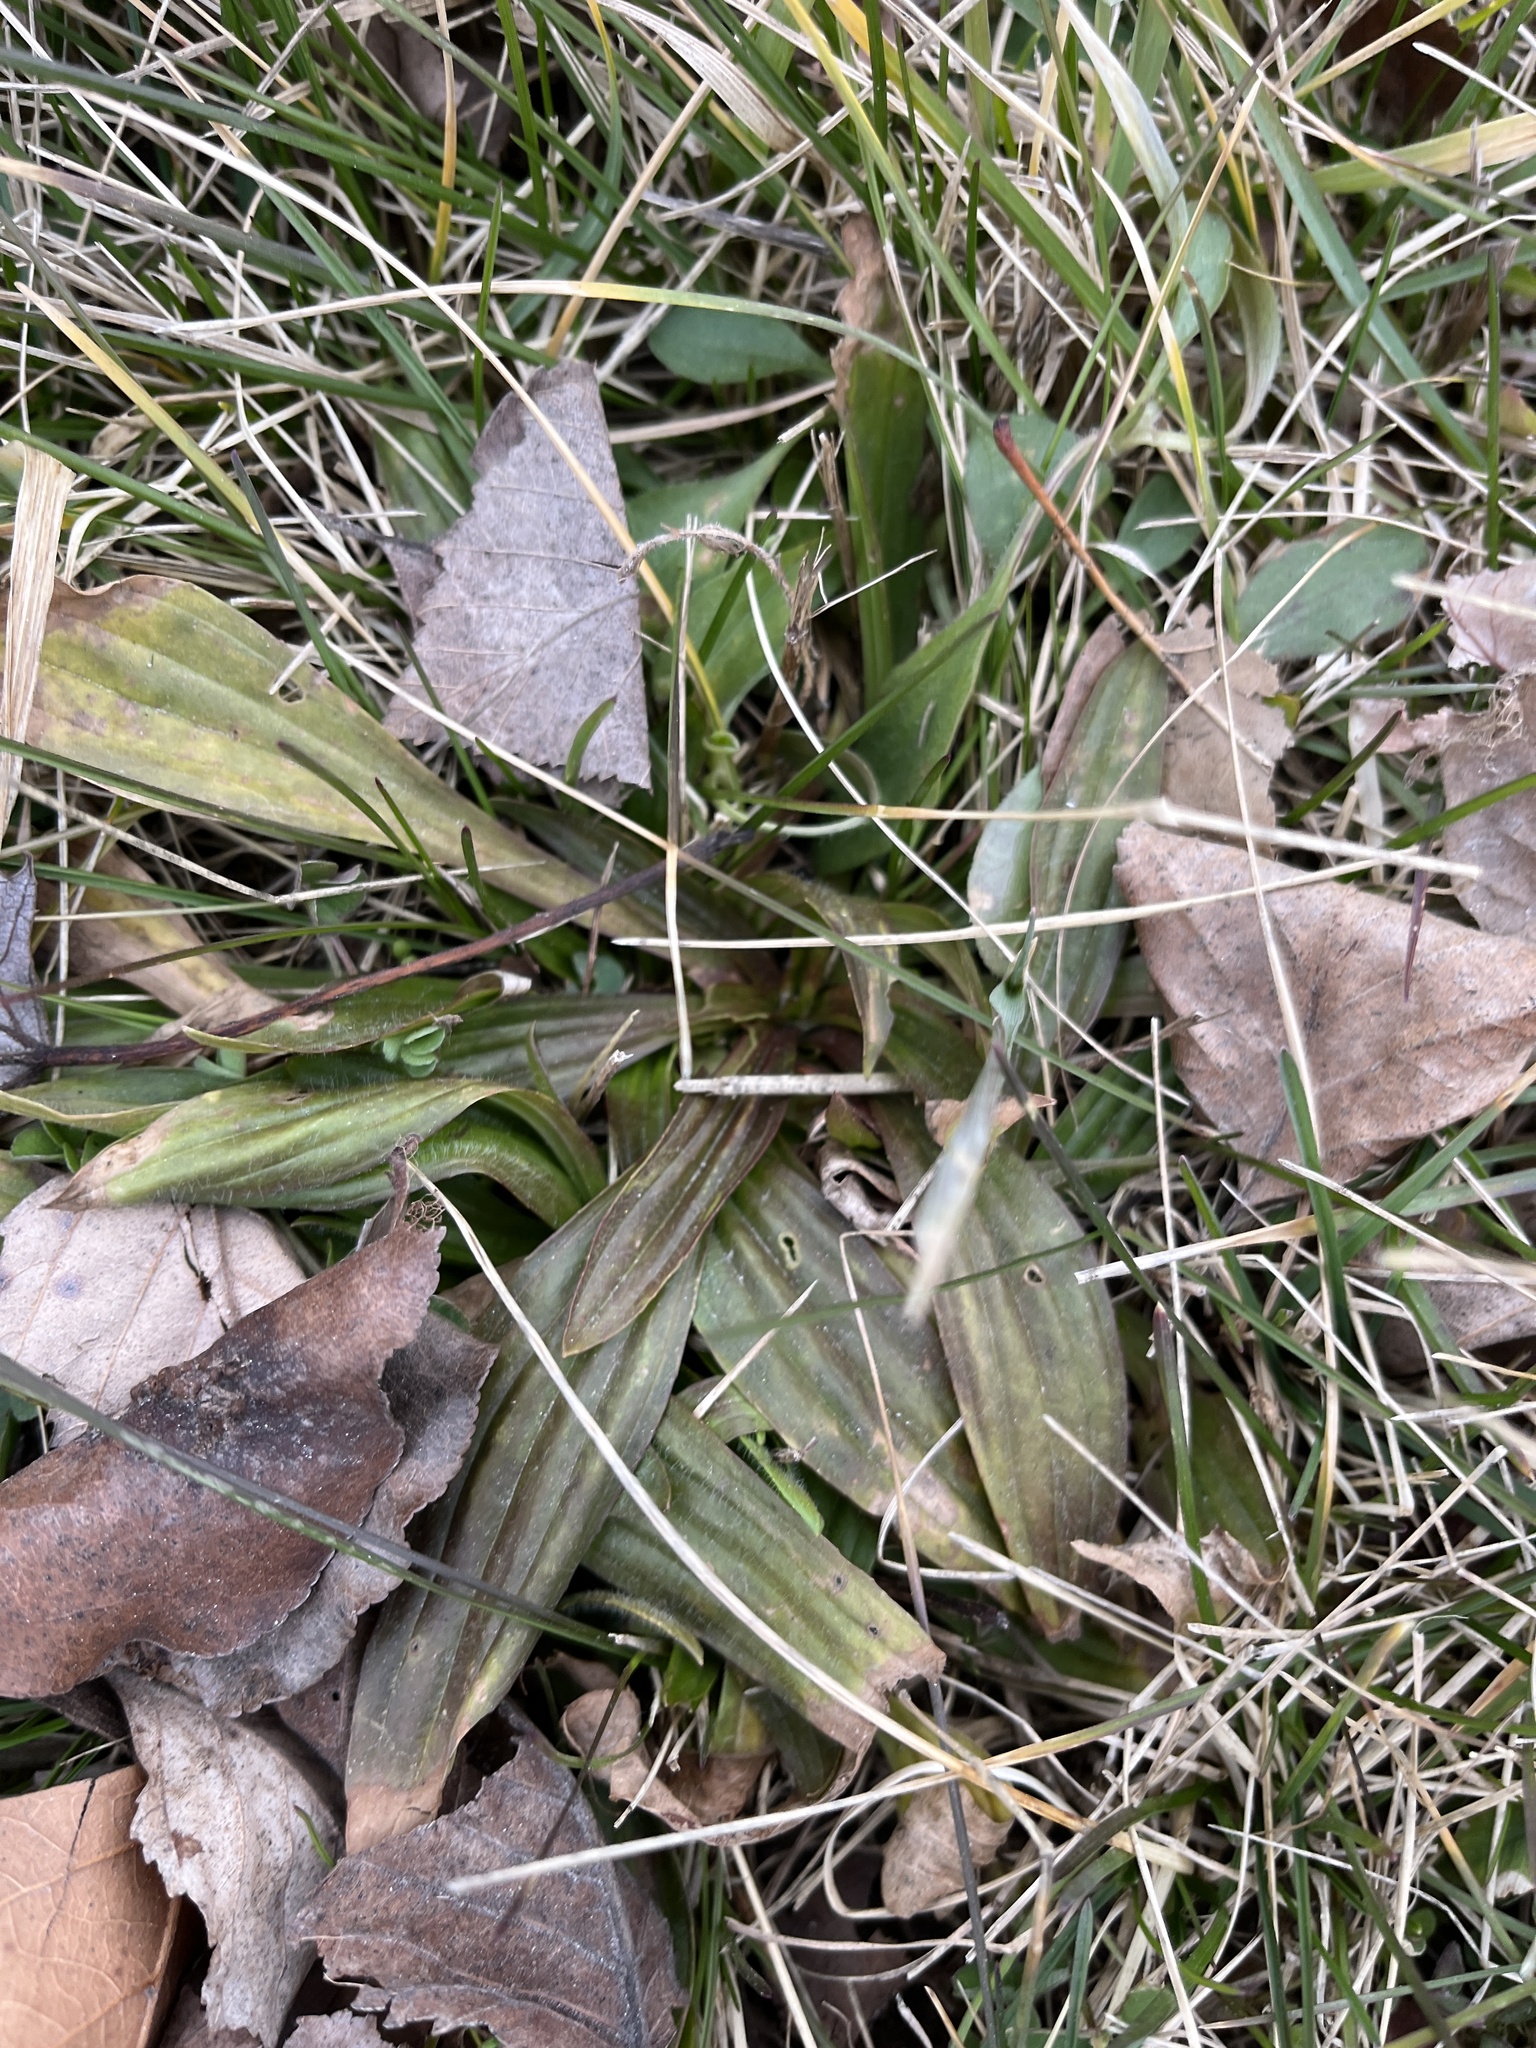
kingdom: Plantae
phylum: Tracheophyta
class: Magnoliopsida
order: Lamiales
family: Plantaginaceae
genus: Plantago
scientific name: Plantago lanceolata
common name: Ribwort plantain
